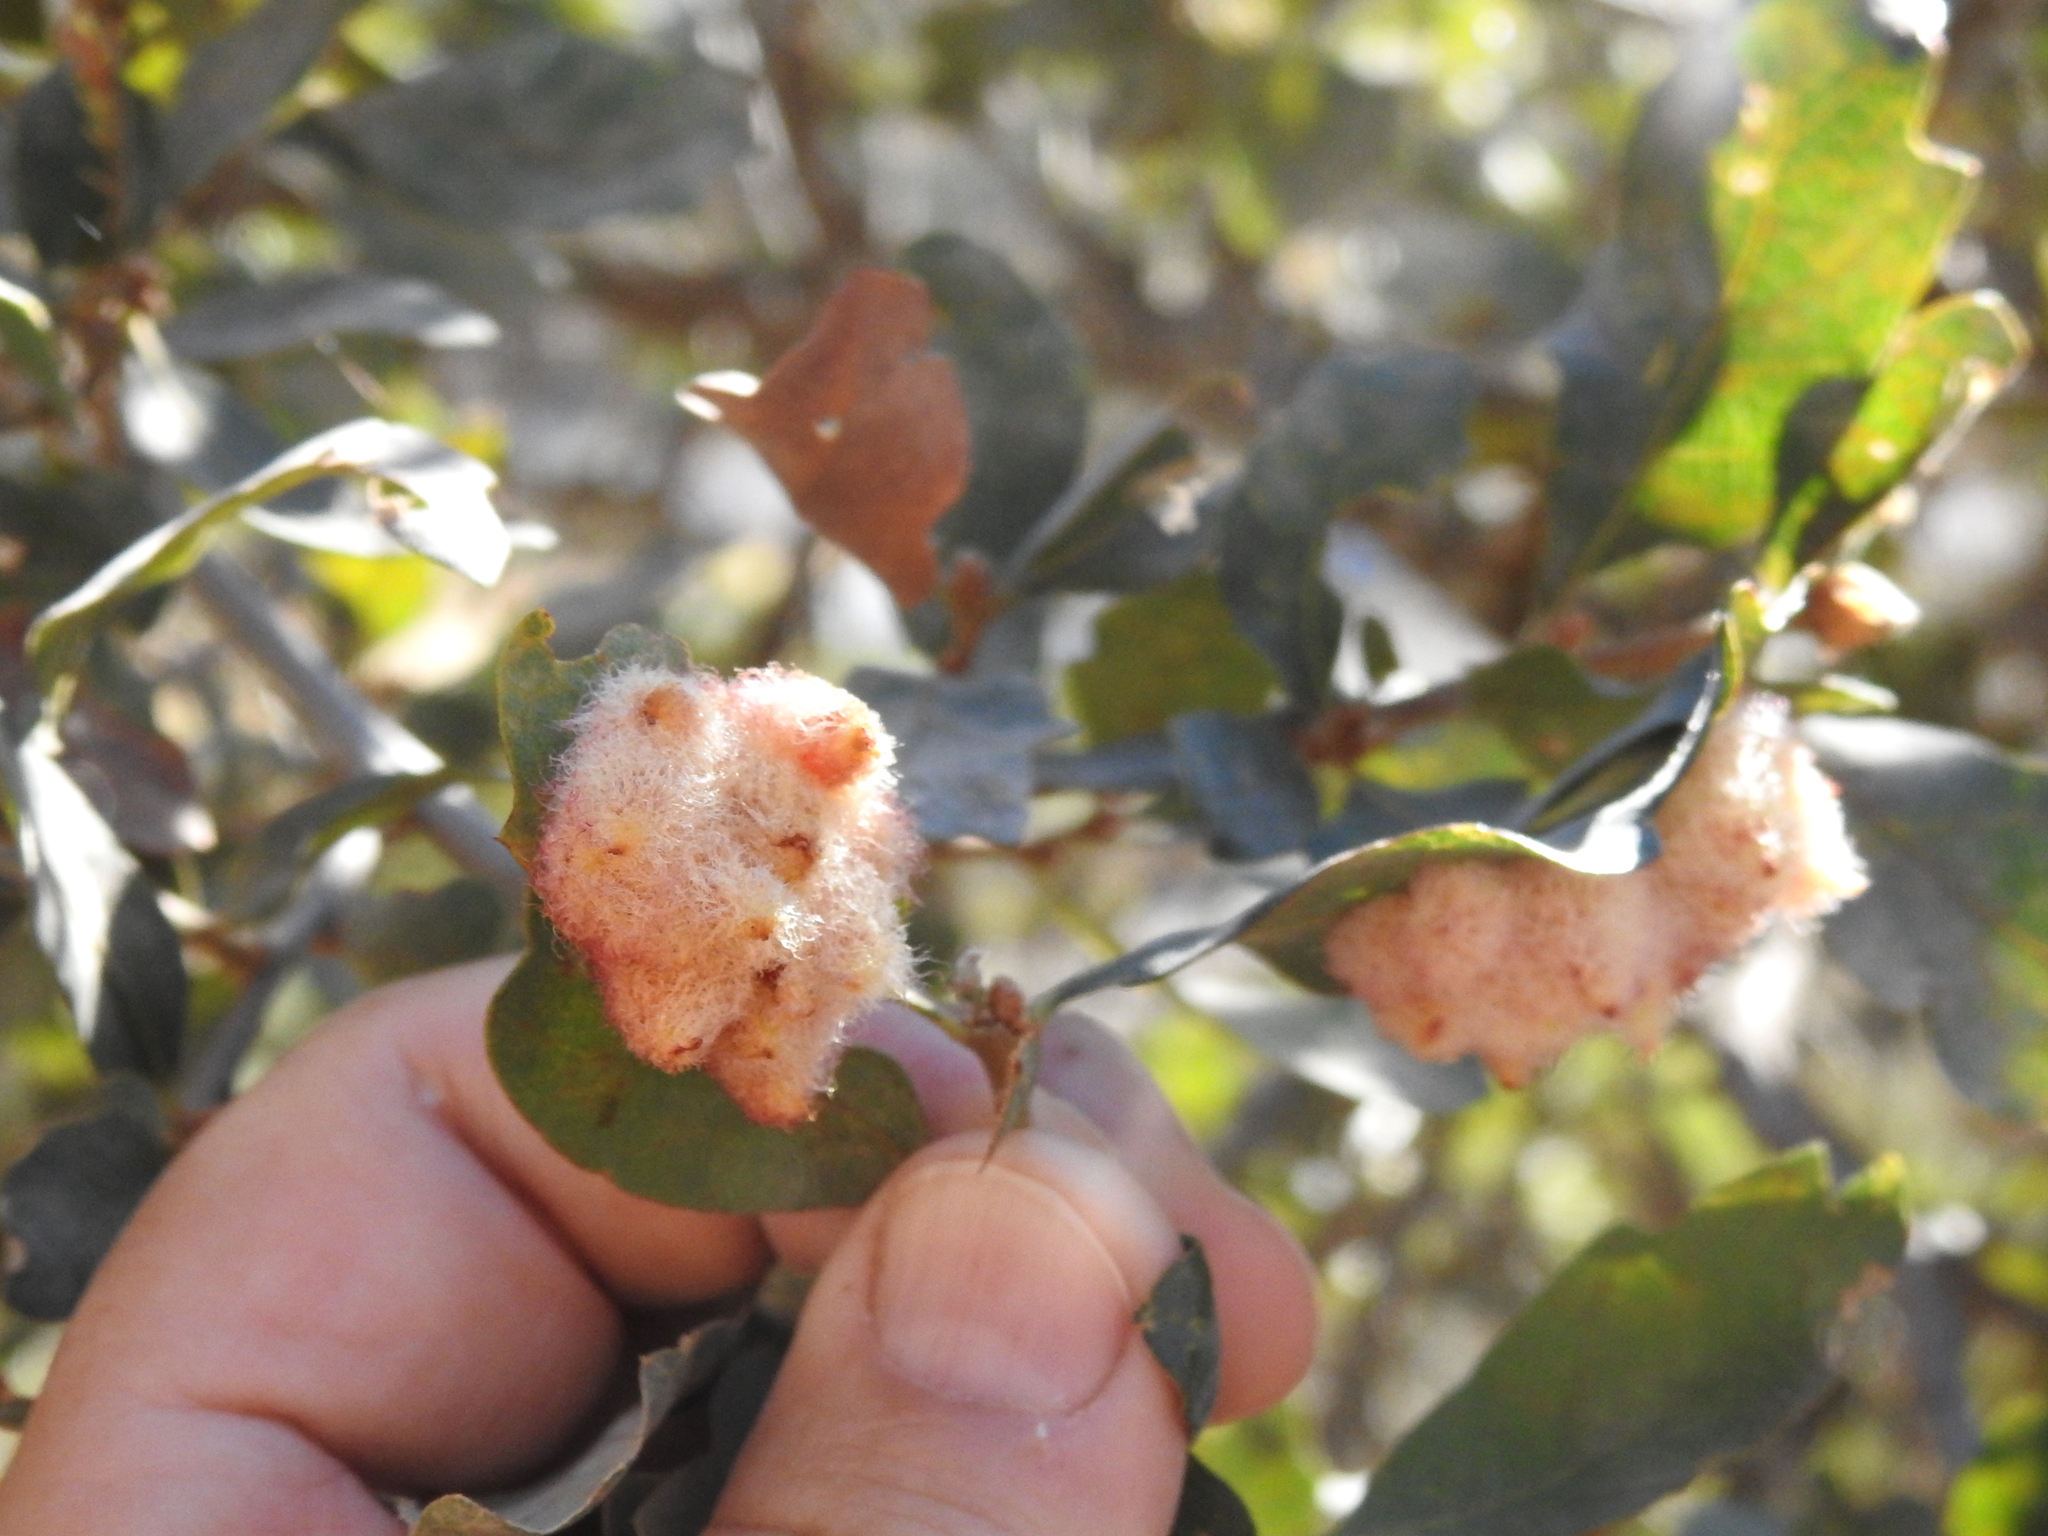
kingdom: Animalia
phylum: Arthropoda
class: Insecta
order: Hymenoptera
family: Cynipidae
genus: Andricus
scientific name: Andricus
